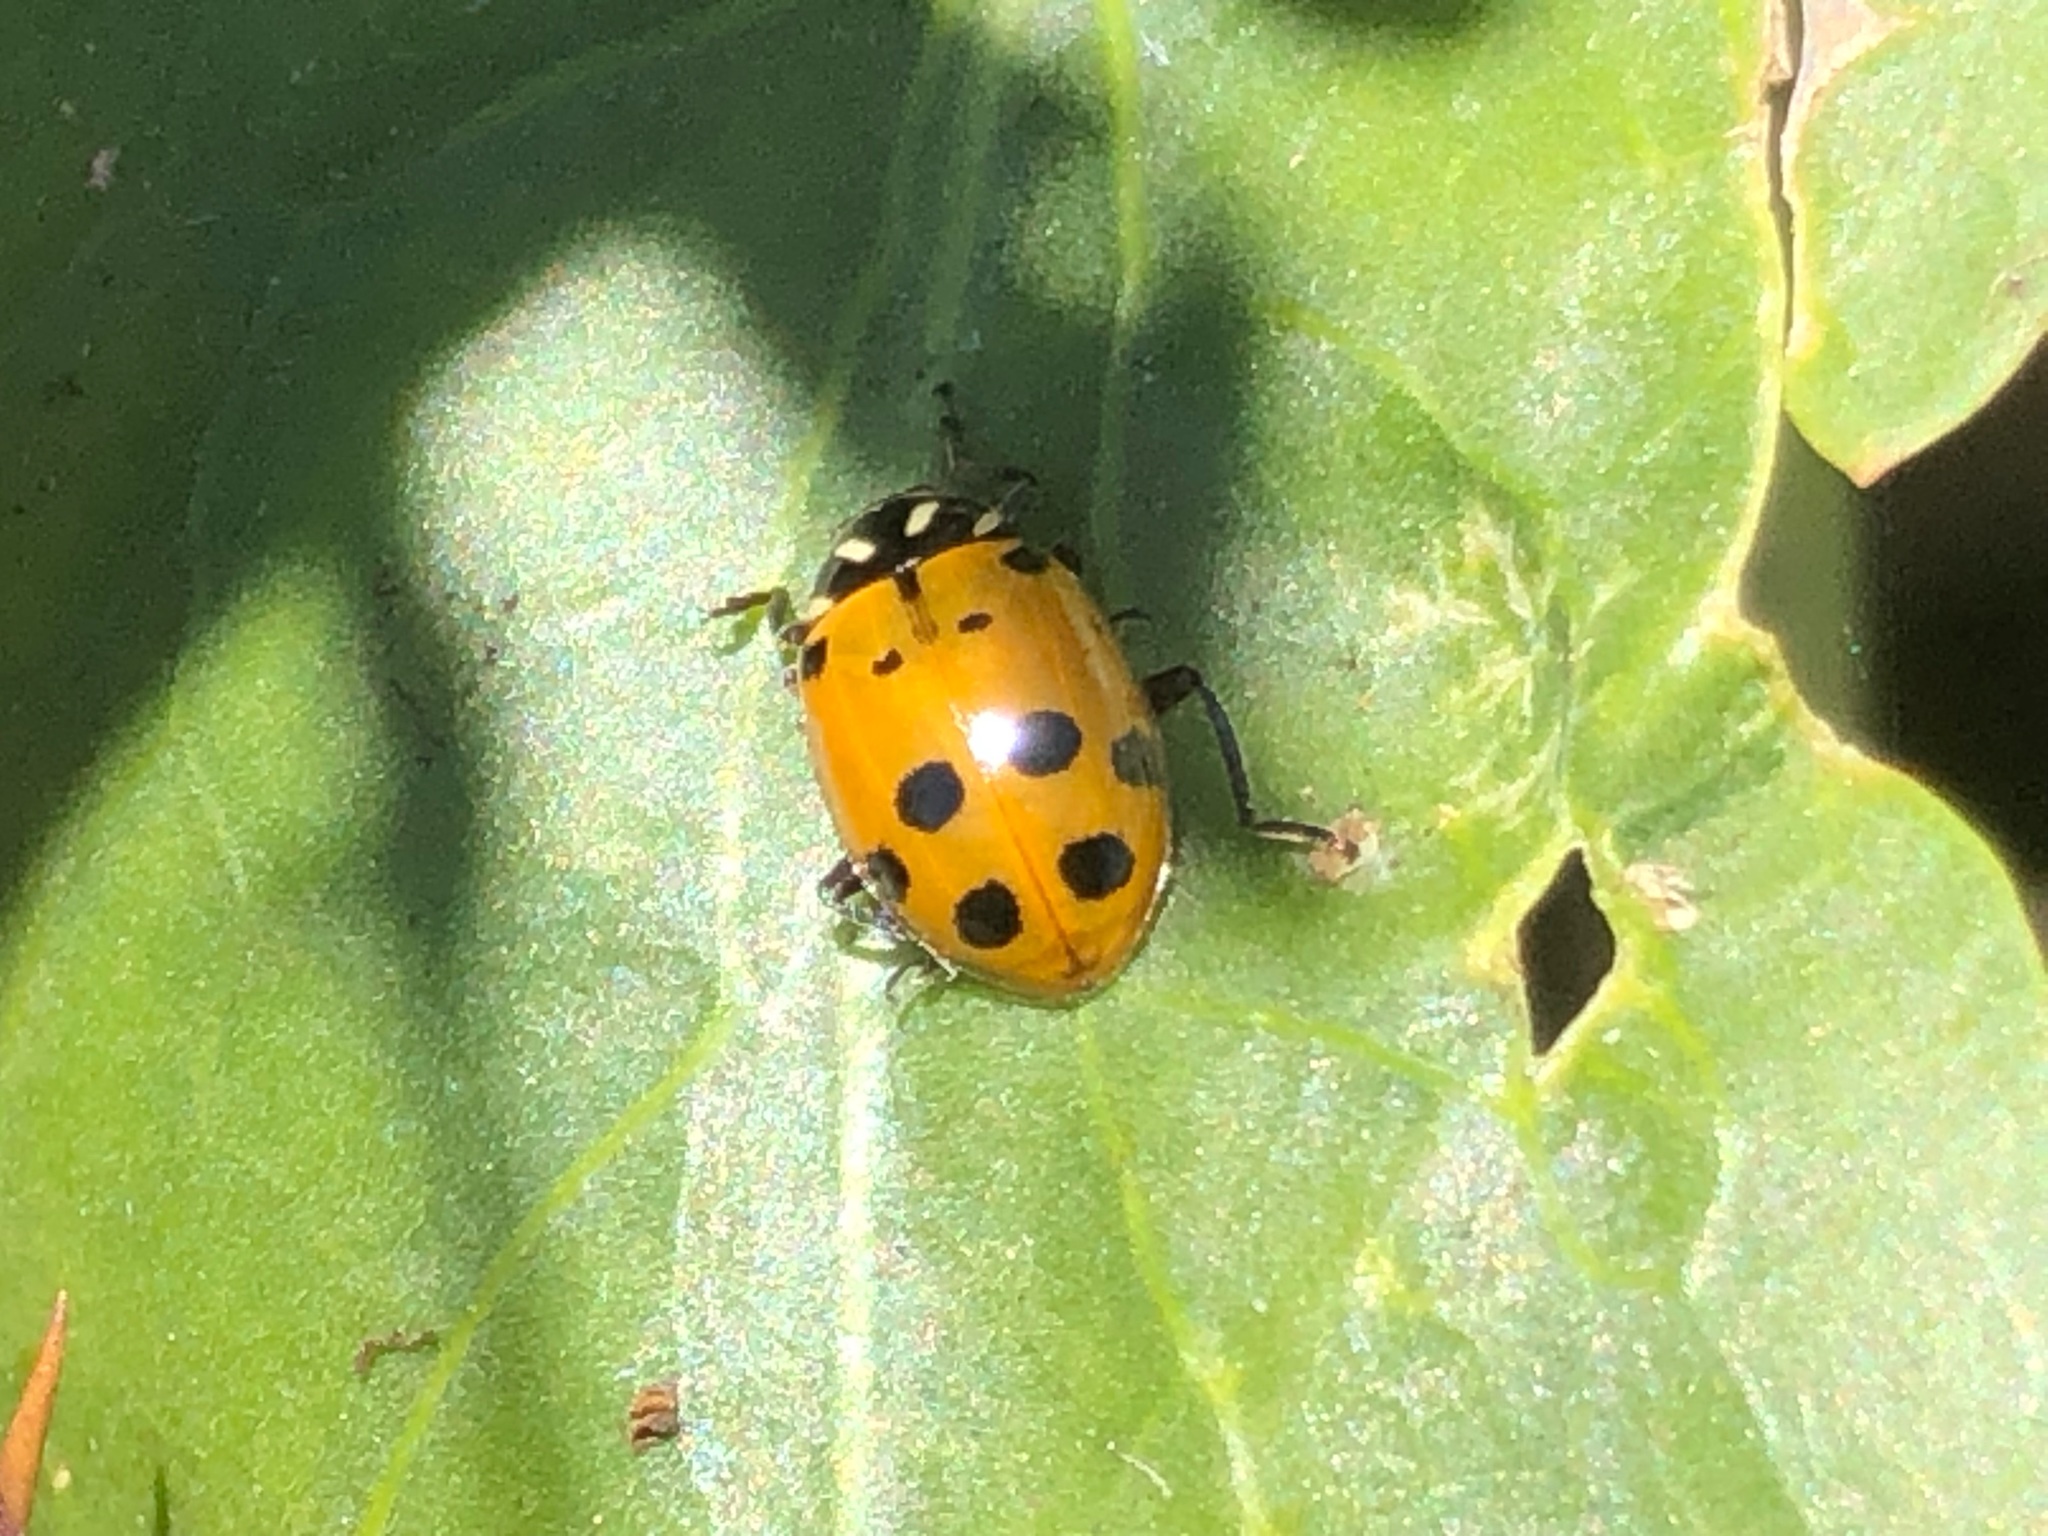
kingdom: Animalia
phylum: Arthropoda
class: Insecta
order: Coleoptera
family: Coccinellidae
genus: Hippodamia
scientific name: Hippodamia convergens
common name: Convergent lady beetle
